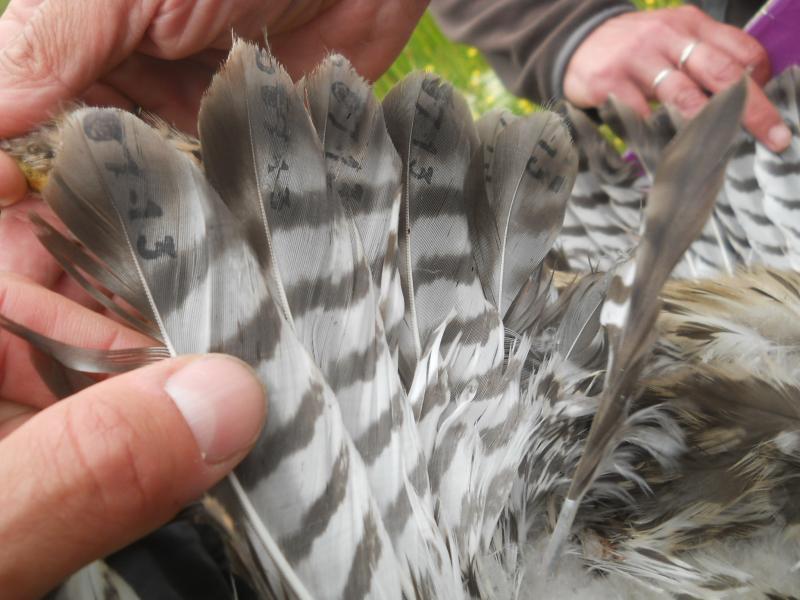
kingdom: Animalia
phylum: Chordata
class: Aves
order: Accipitriformes
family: Accipitridae
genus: Buteo
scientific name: Buteo buteo
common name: Common buzzard
